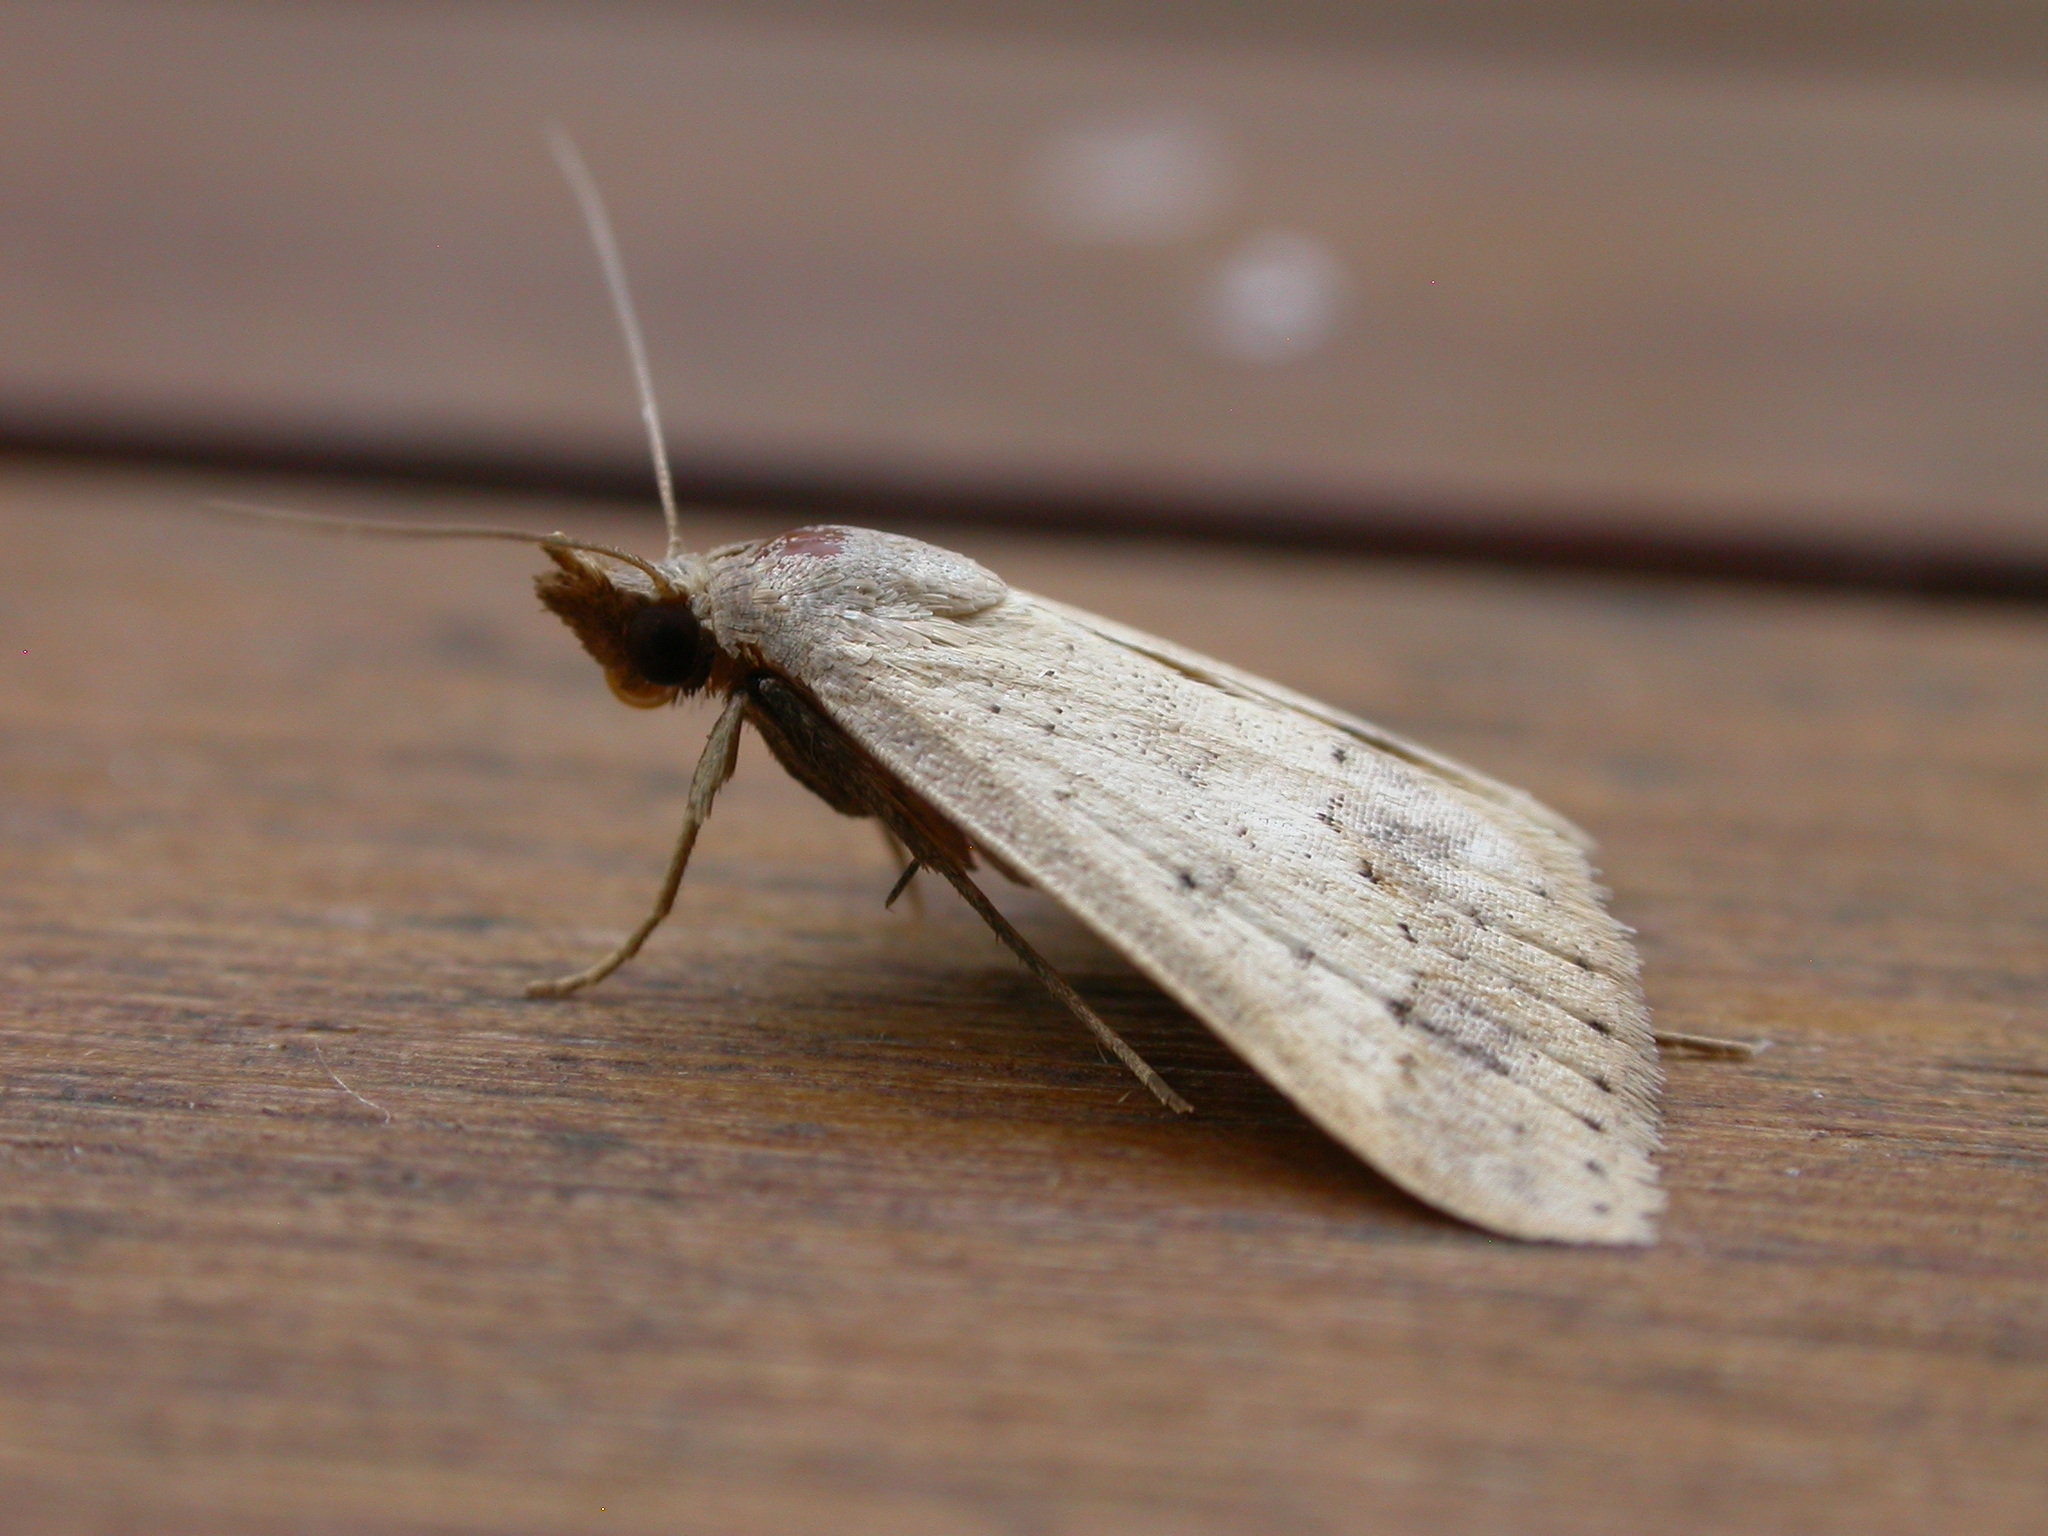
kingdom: Animalia
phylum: Arthropoda
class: Insecta
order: Lepidoptera
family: Erebidae
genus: Gesonia
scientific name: Gesonia obeditalis
